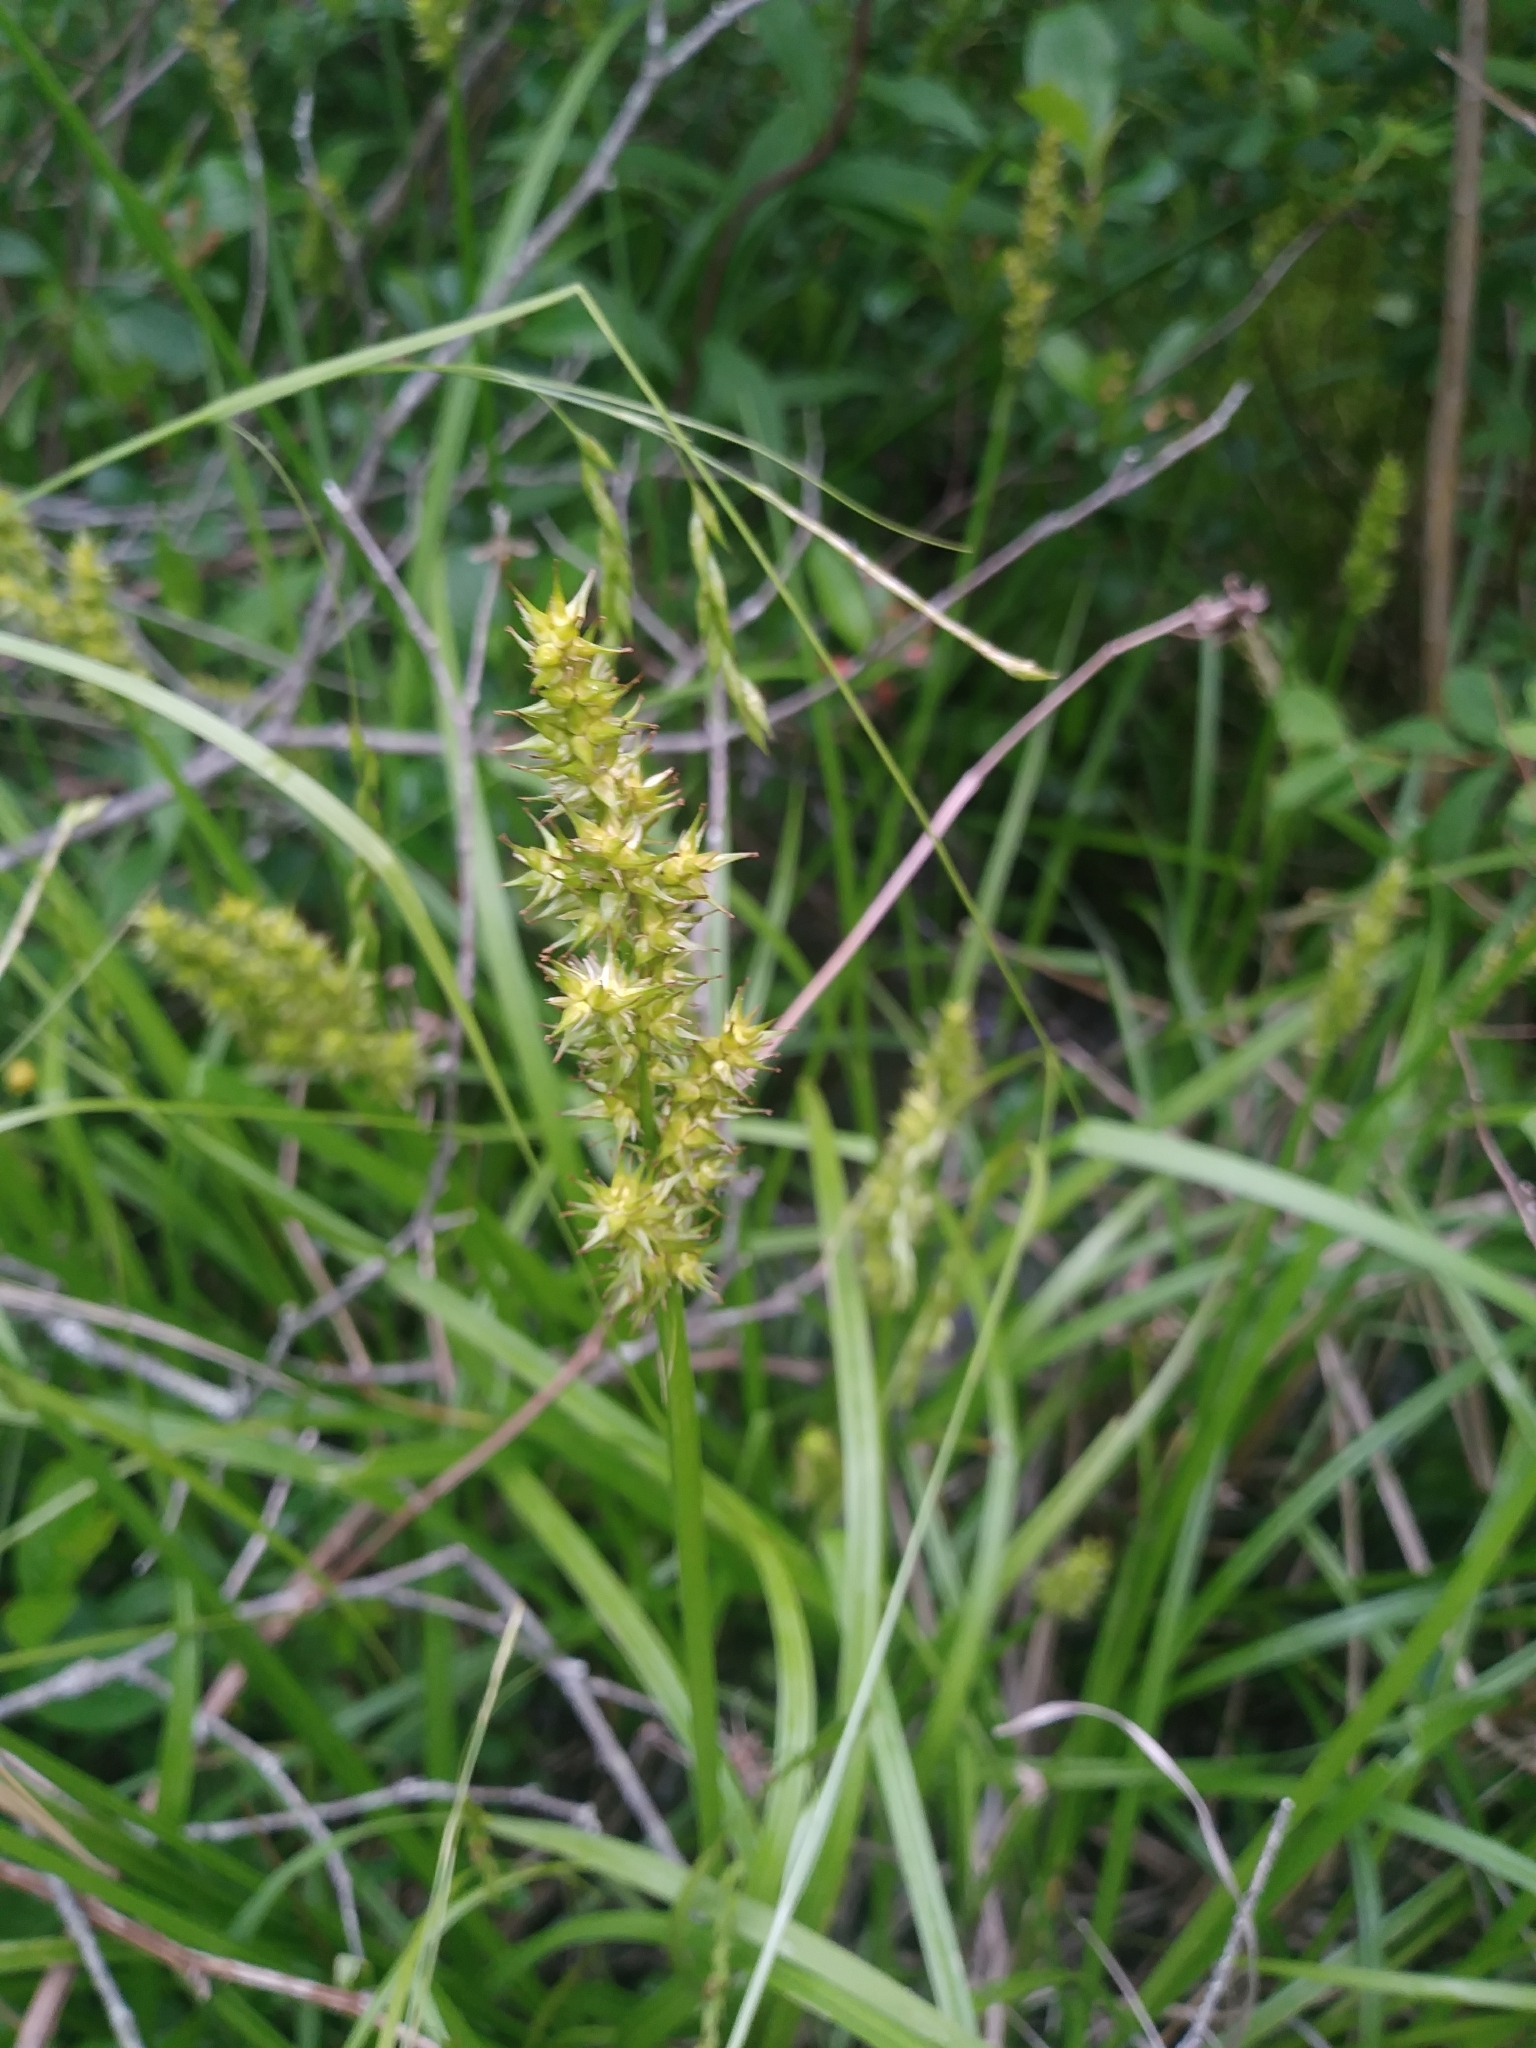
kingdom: Plantae
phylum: Tracheophyta
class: Liliopsida
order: Poales
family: Cyperaceae
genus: Carex
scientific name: Carex stipata
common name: Awl-fruited sedge
